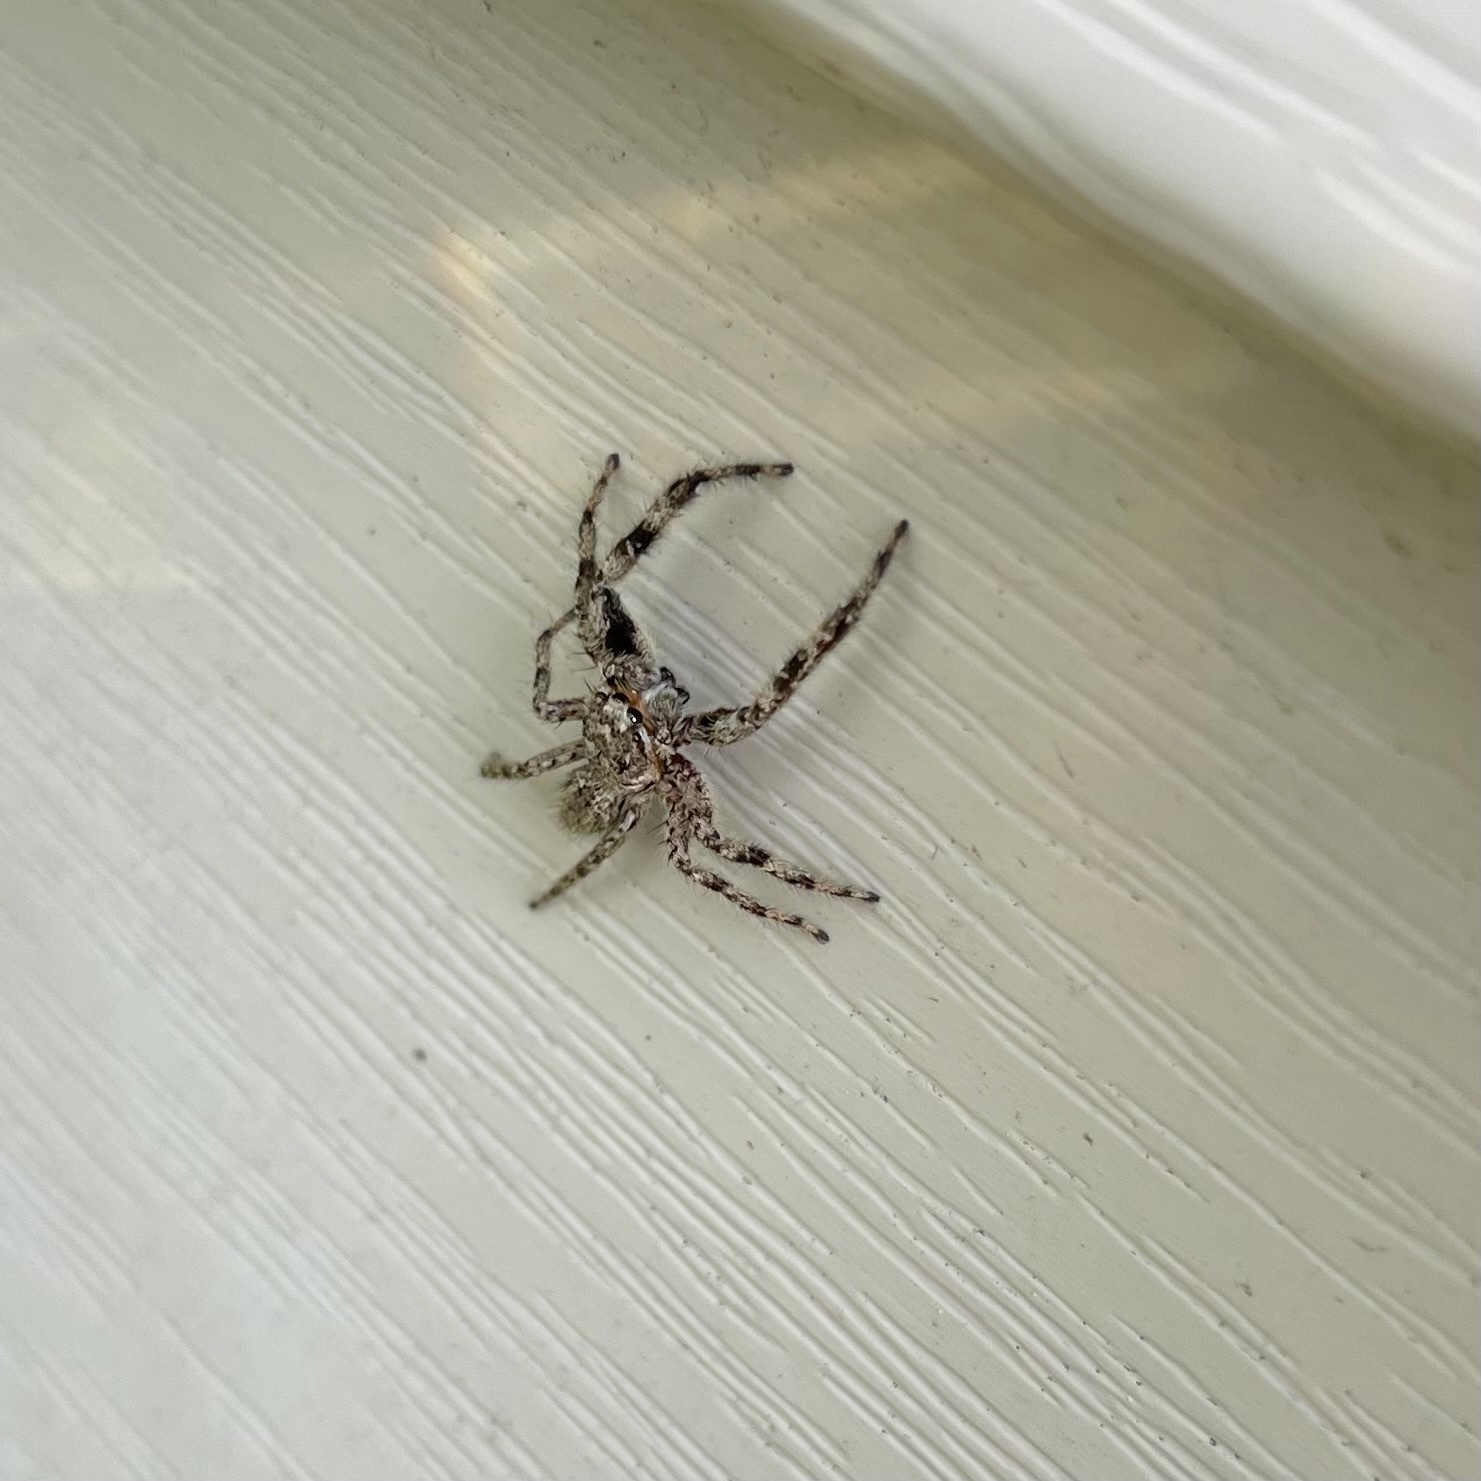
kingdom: Animalia
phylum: Arthropoda
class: Arachnida
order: Araneae
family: Salticidae
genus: Platycryptus
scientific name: Platycryptus undatus
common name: Tan jumping spider
